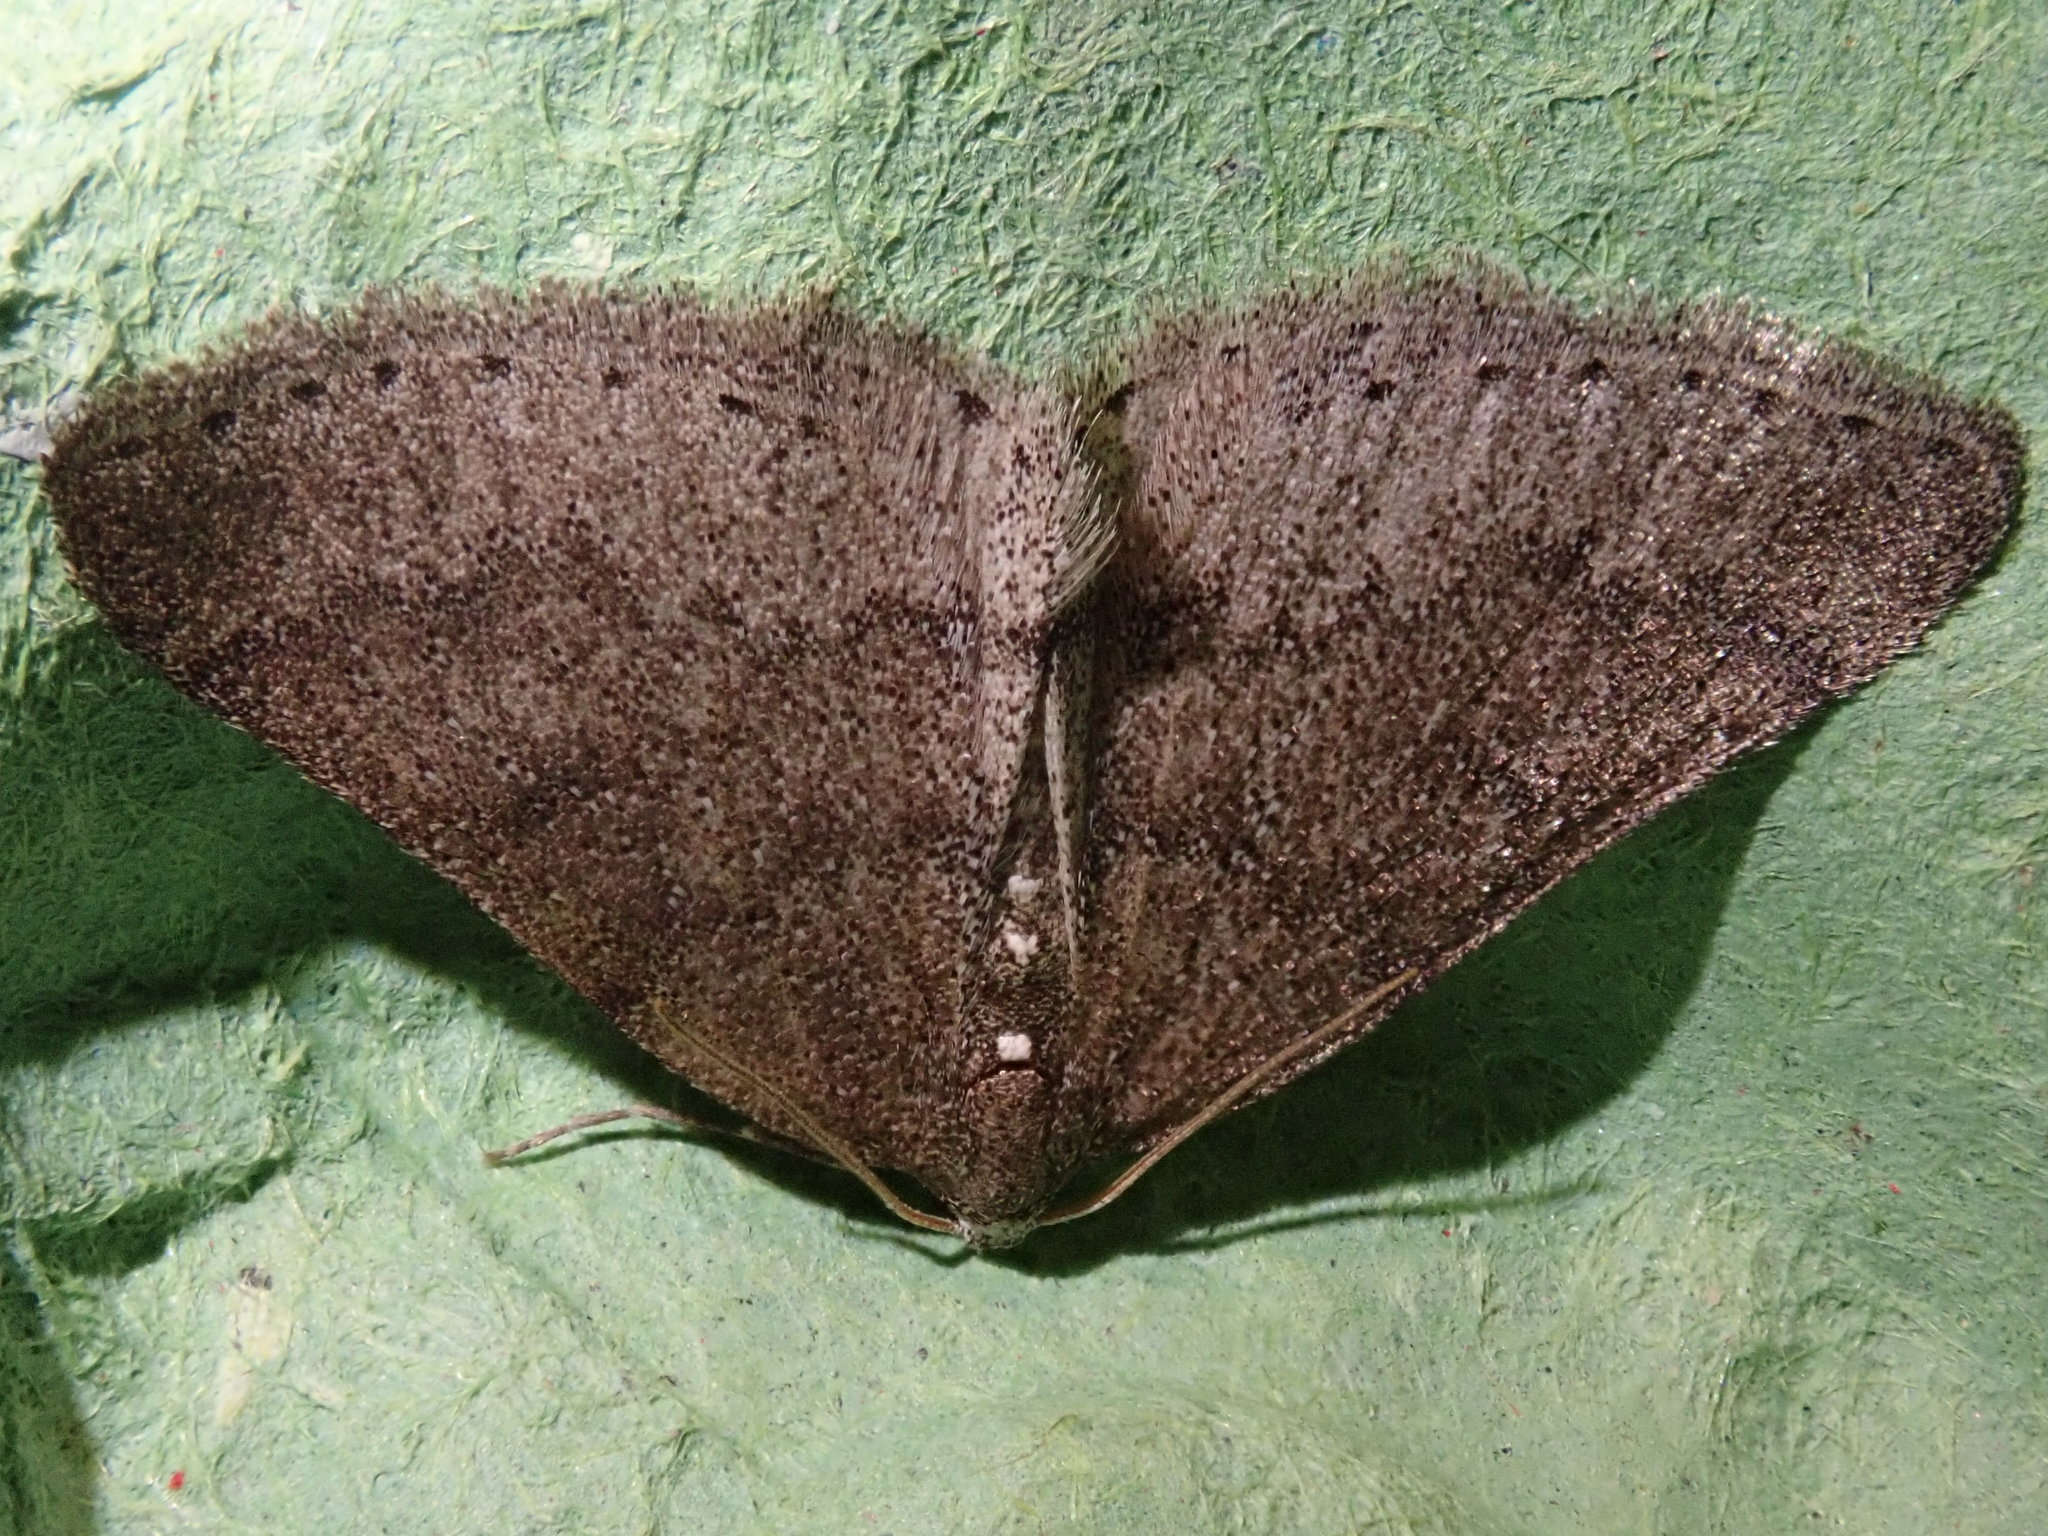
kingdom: Animalia
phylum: Arthropoda
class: Insecta
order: Lepidoptera
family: Geometridae
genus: Aleucis
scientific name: Aleucis distinctata
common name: Sloe carpet
